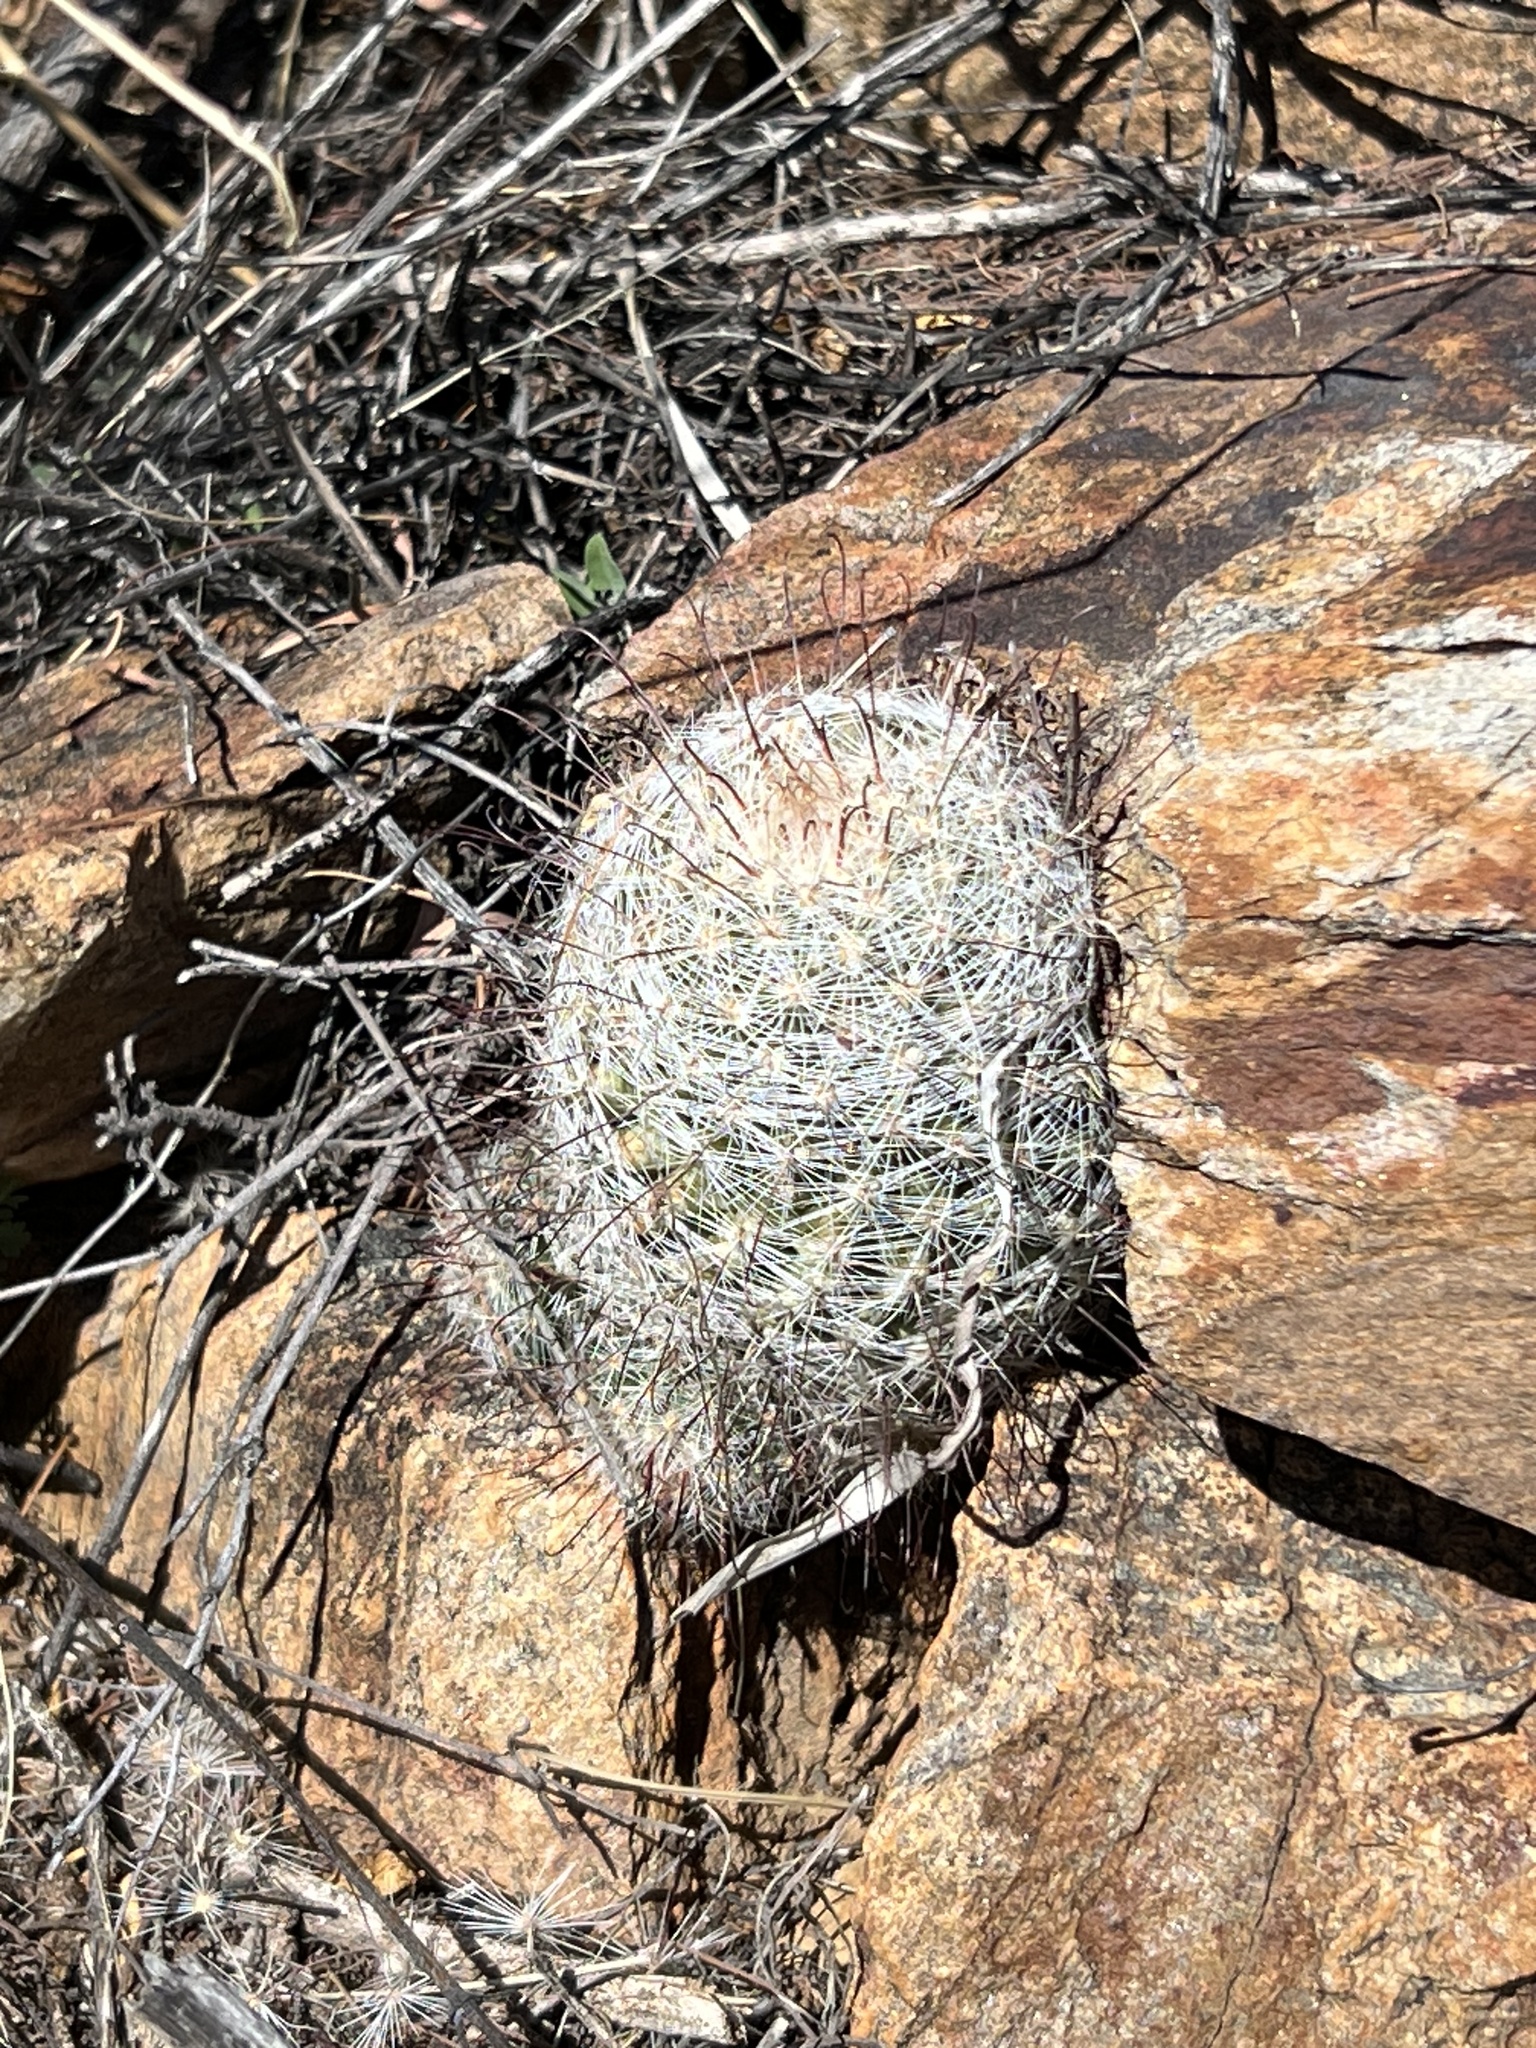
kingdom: Plantae
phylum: Tracheophyta
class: Magnoliopsida
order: Caryophyllales
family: Cactaceae
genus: Cochemiea
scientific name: Cochemiea grahamii
